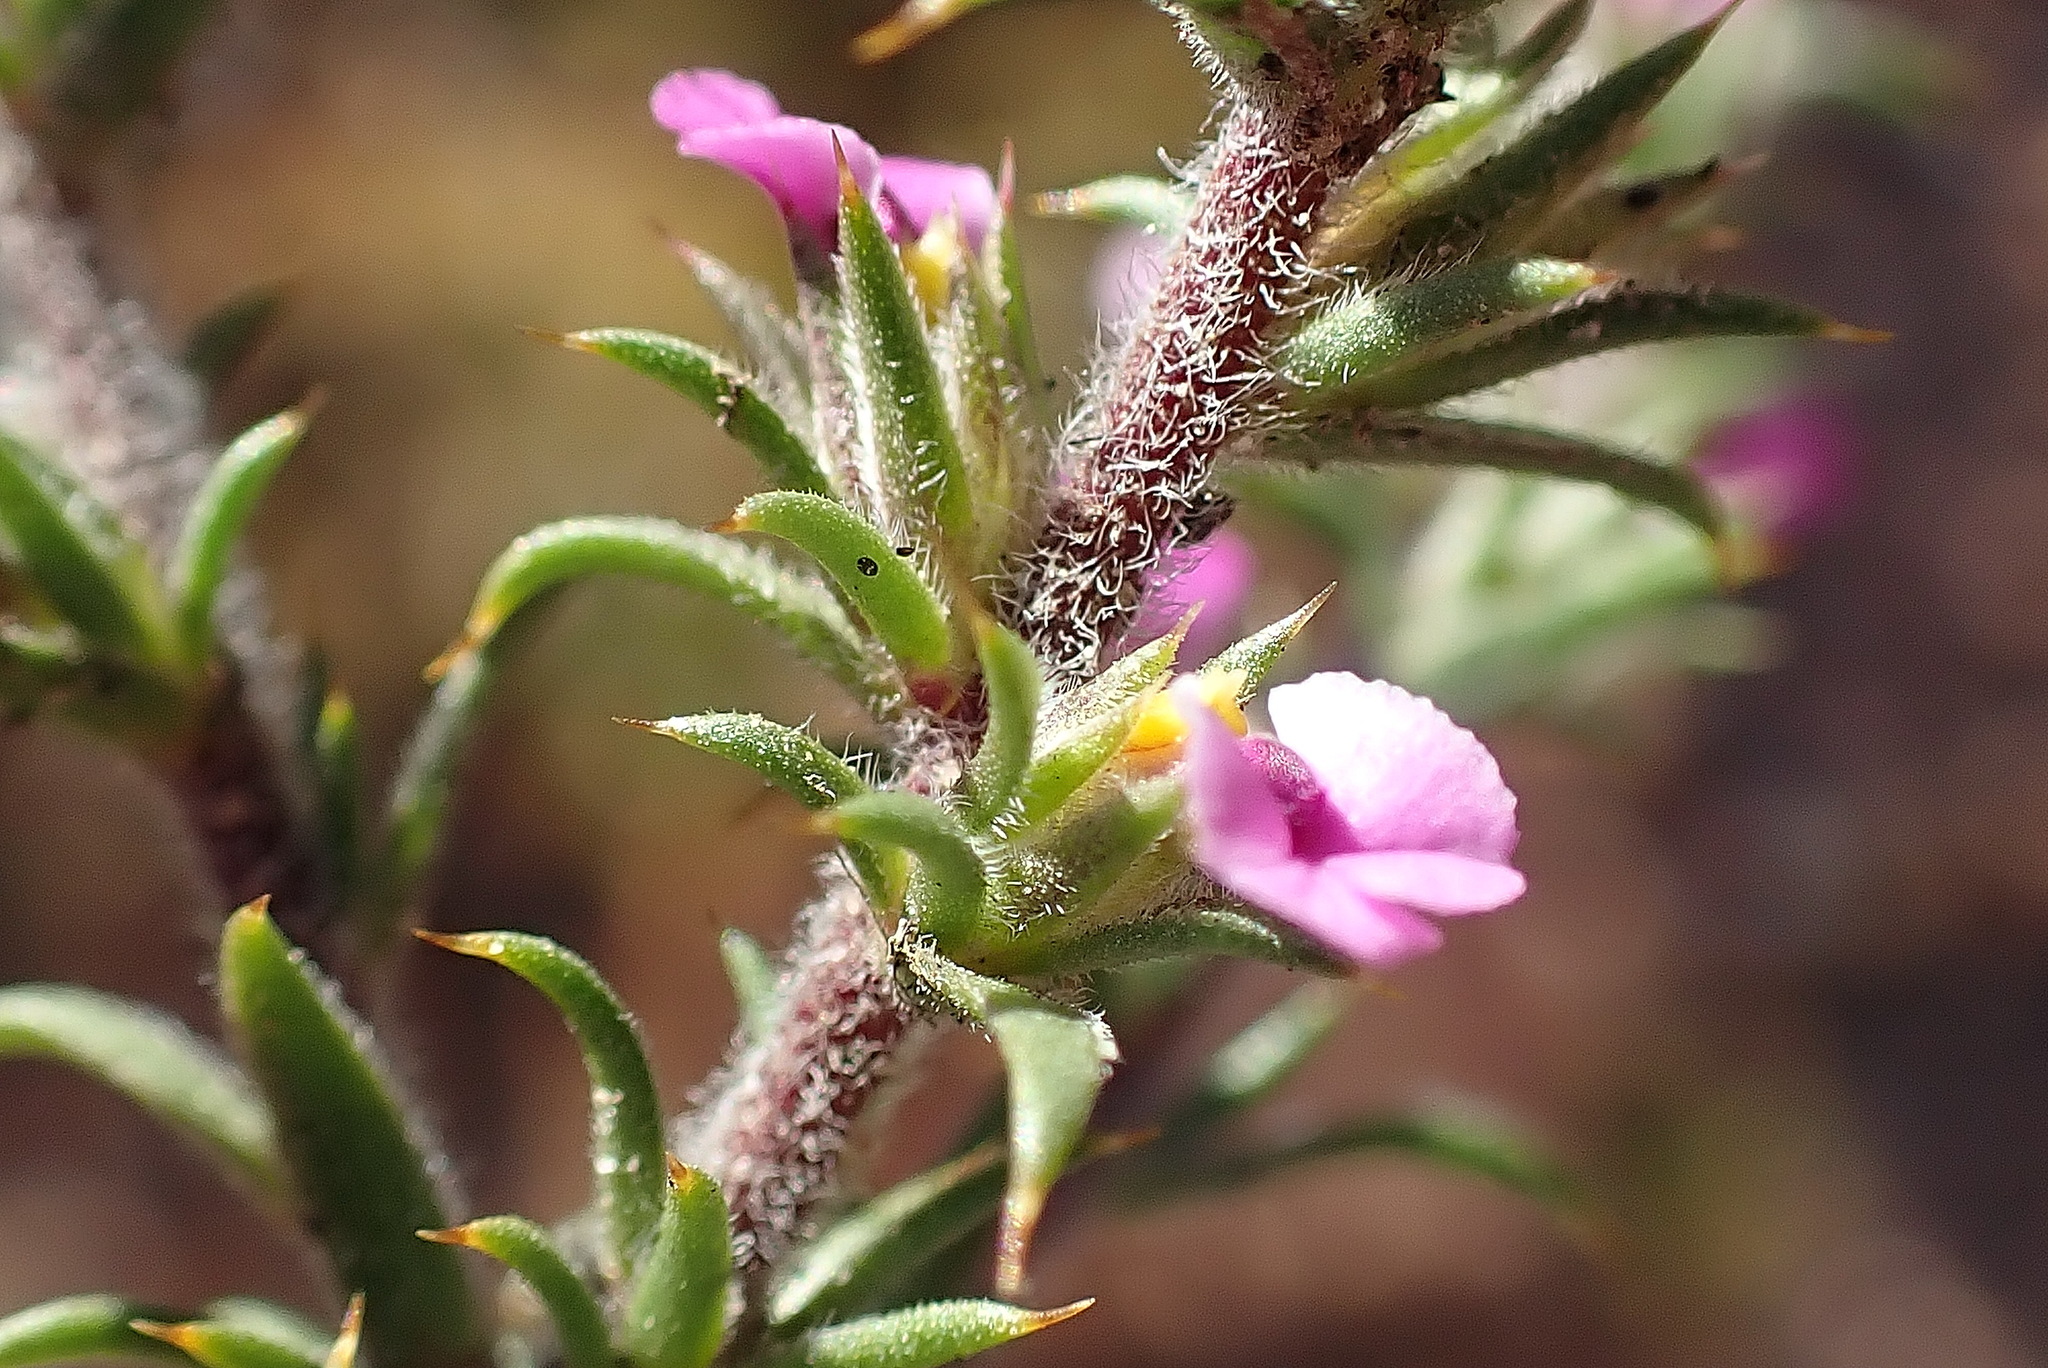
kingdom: Plantae
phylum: Tracheophyta
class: Magnoliopsida
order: Fabales
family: Polygalaceae
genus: Muraltia
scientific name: Muraltia squarrosa
